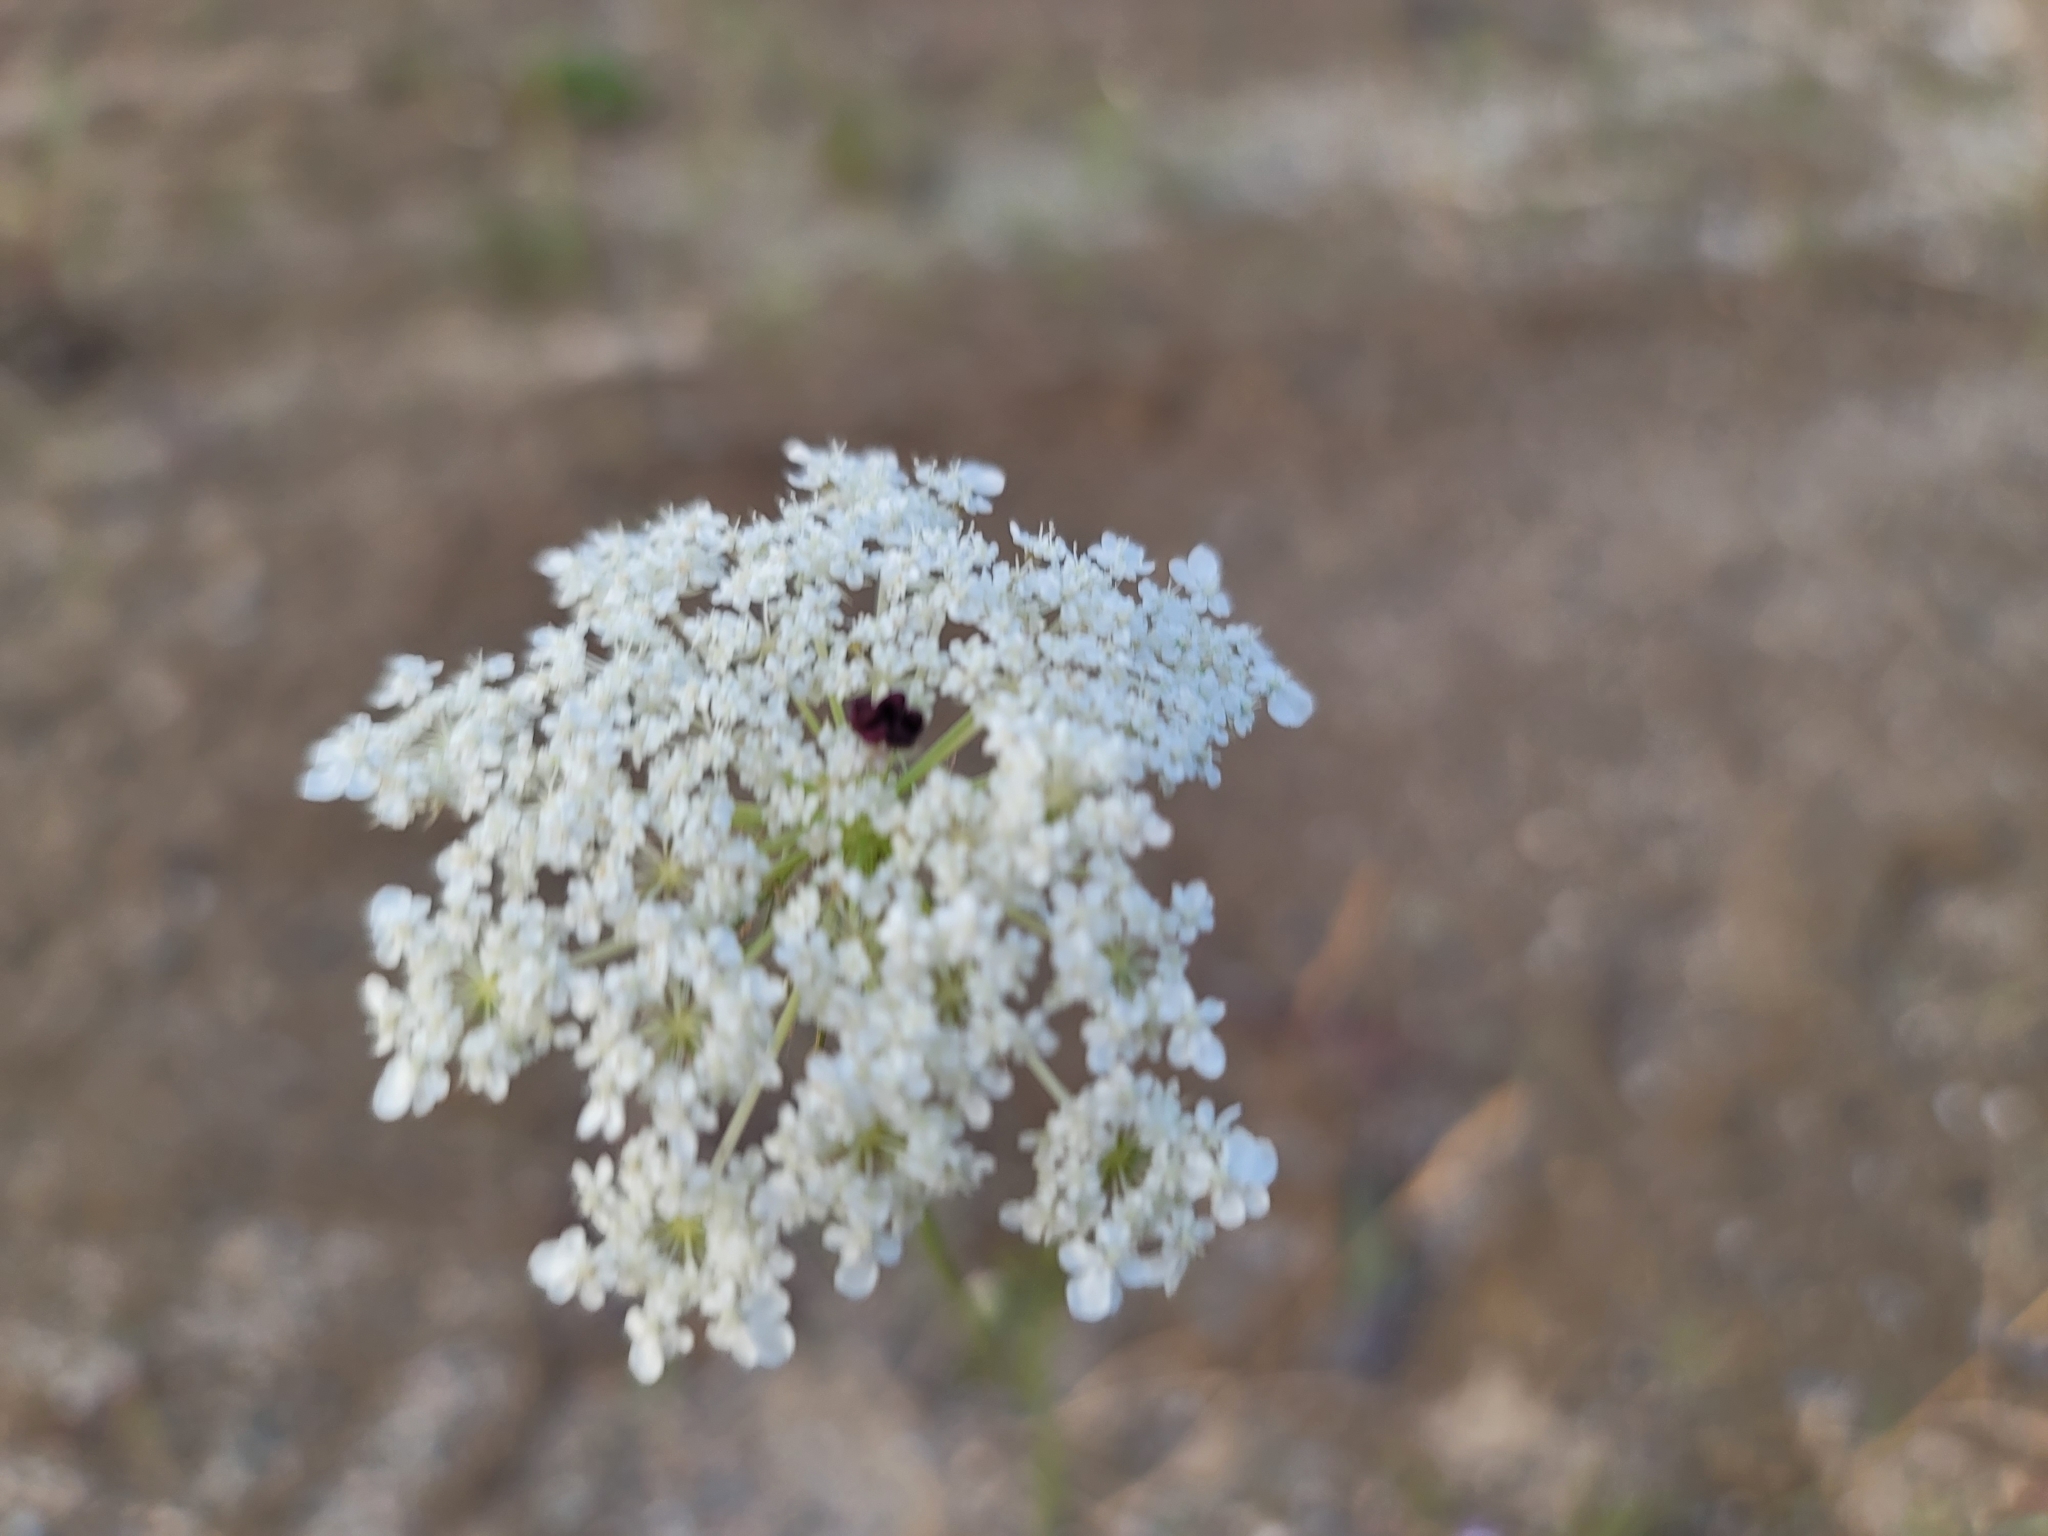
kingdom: Plantae
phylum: Tracheophyta
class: Magnoliopsida
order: Apiales
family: Apiaceae
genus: Daucus
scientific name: Daucus carota
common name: Wild carrot
